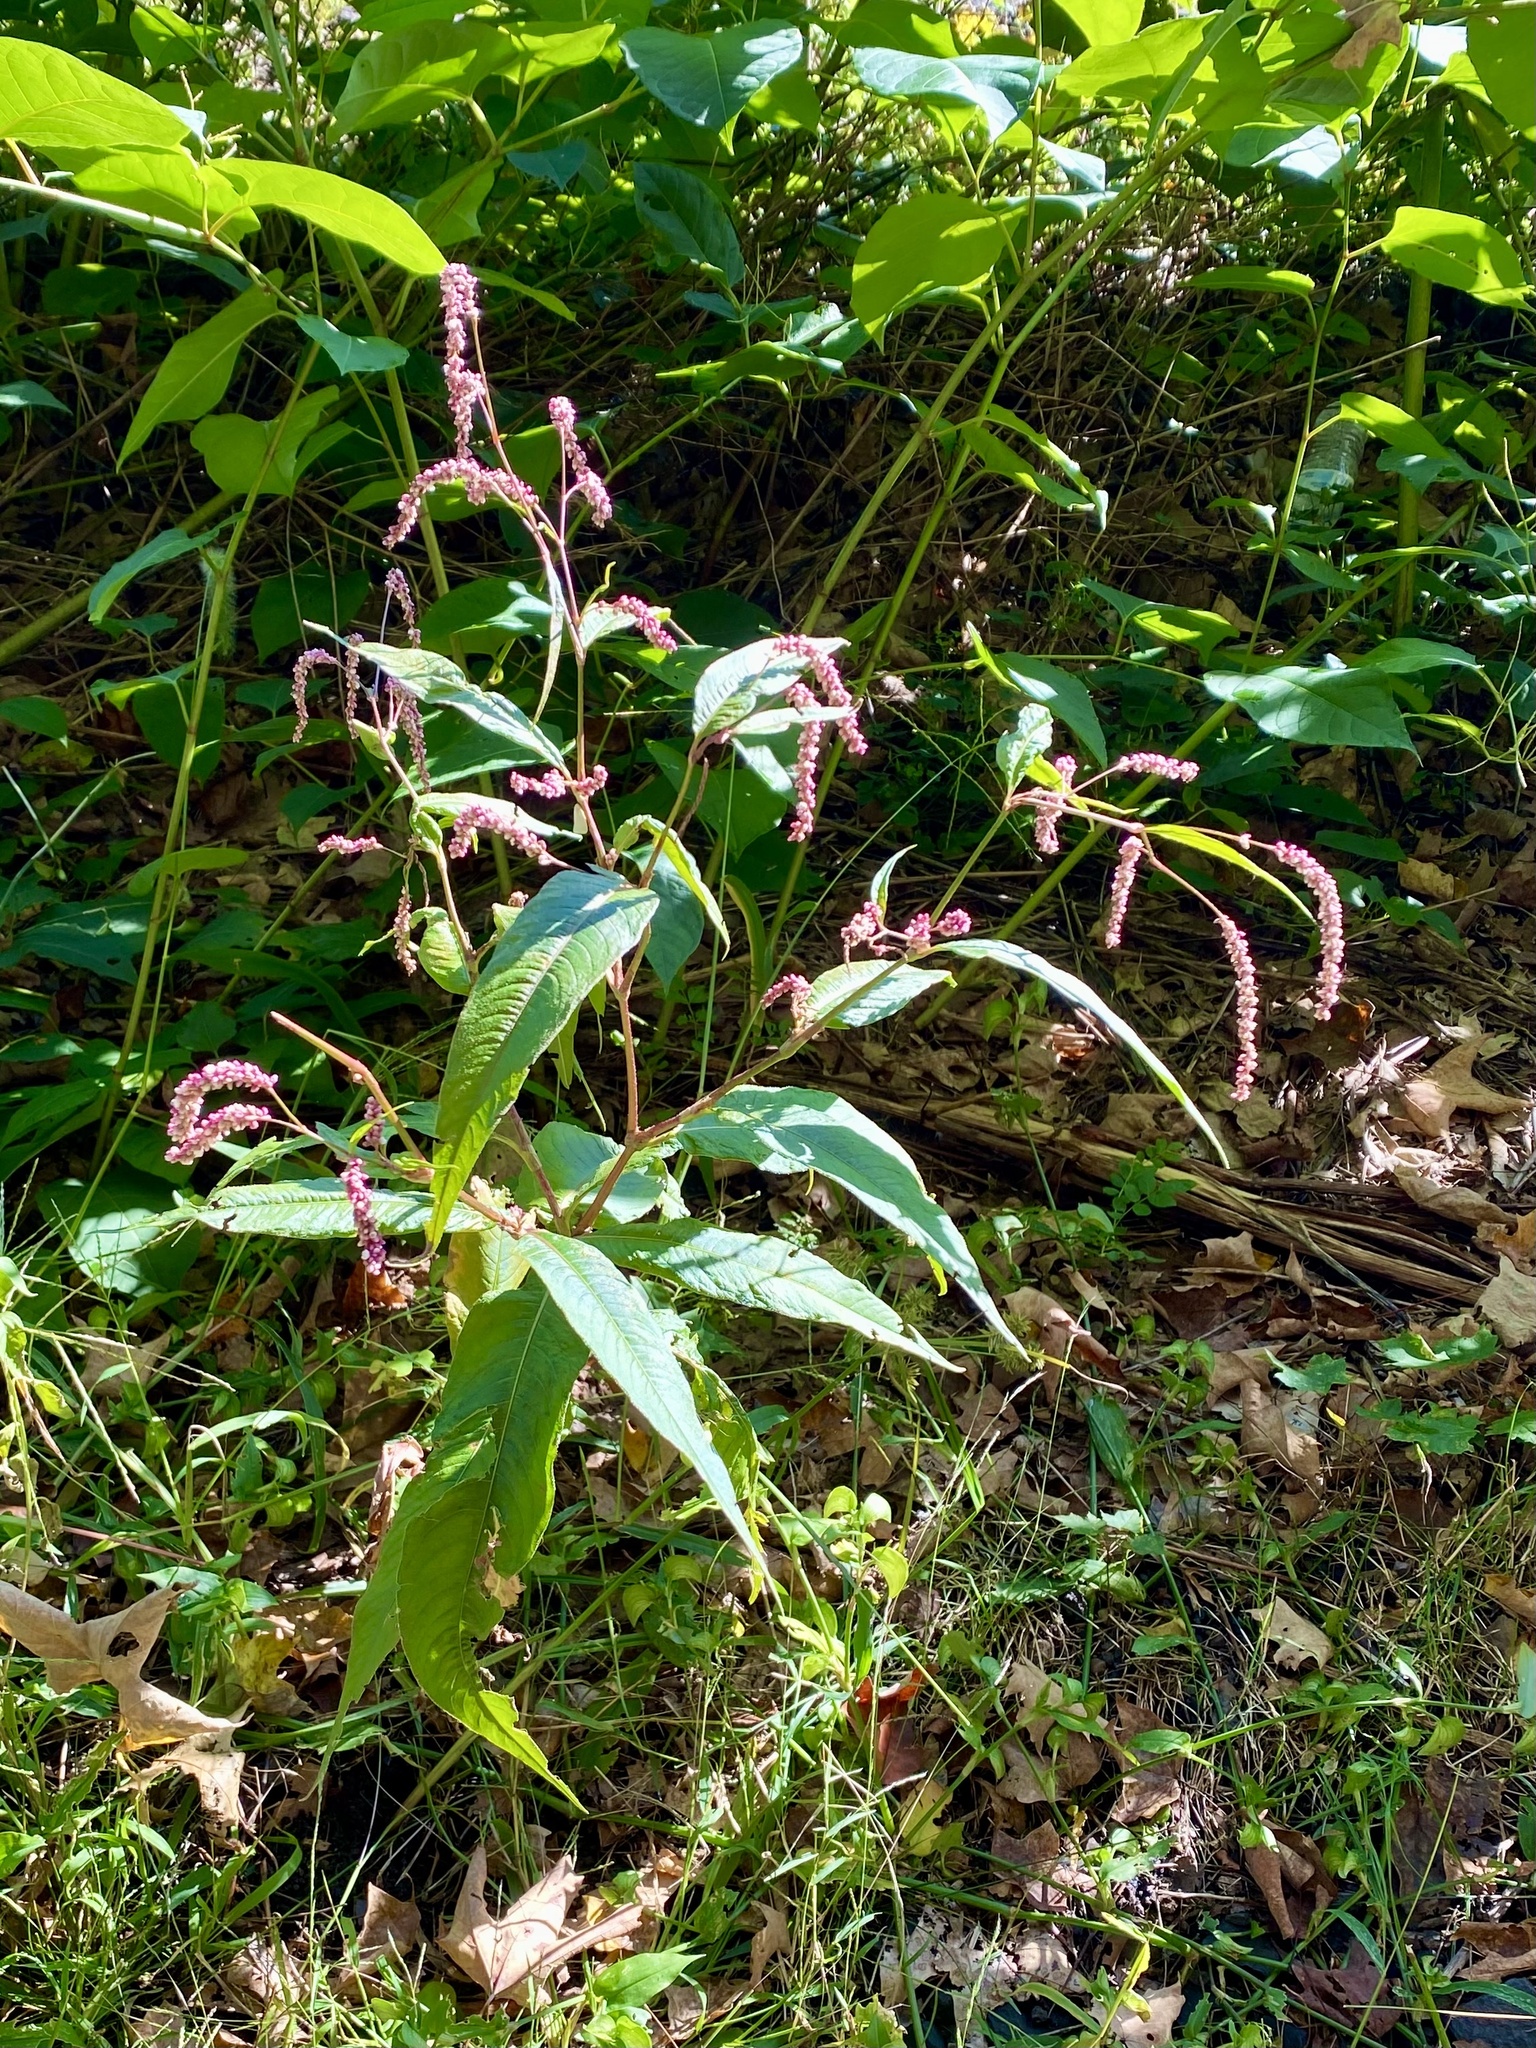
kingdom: Plantae
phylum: Tracheophyta
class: Magnoliopsida
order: Caryophyllales
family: Polygonaceae
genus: Persicaria
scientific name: Persicaria extremiorientalis
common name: Far-eastern smartweed
